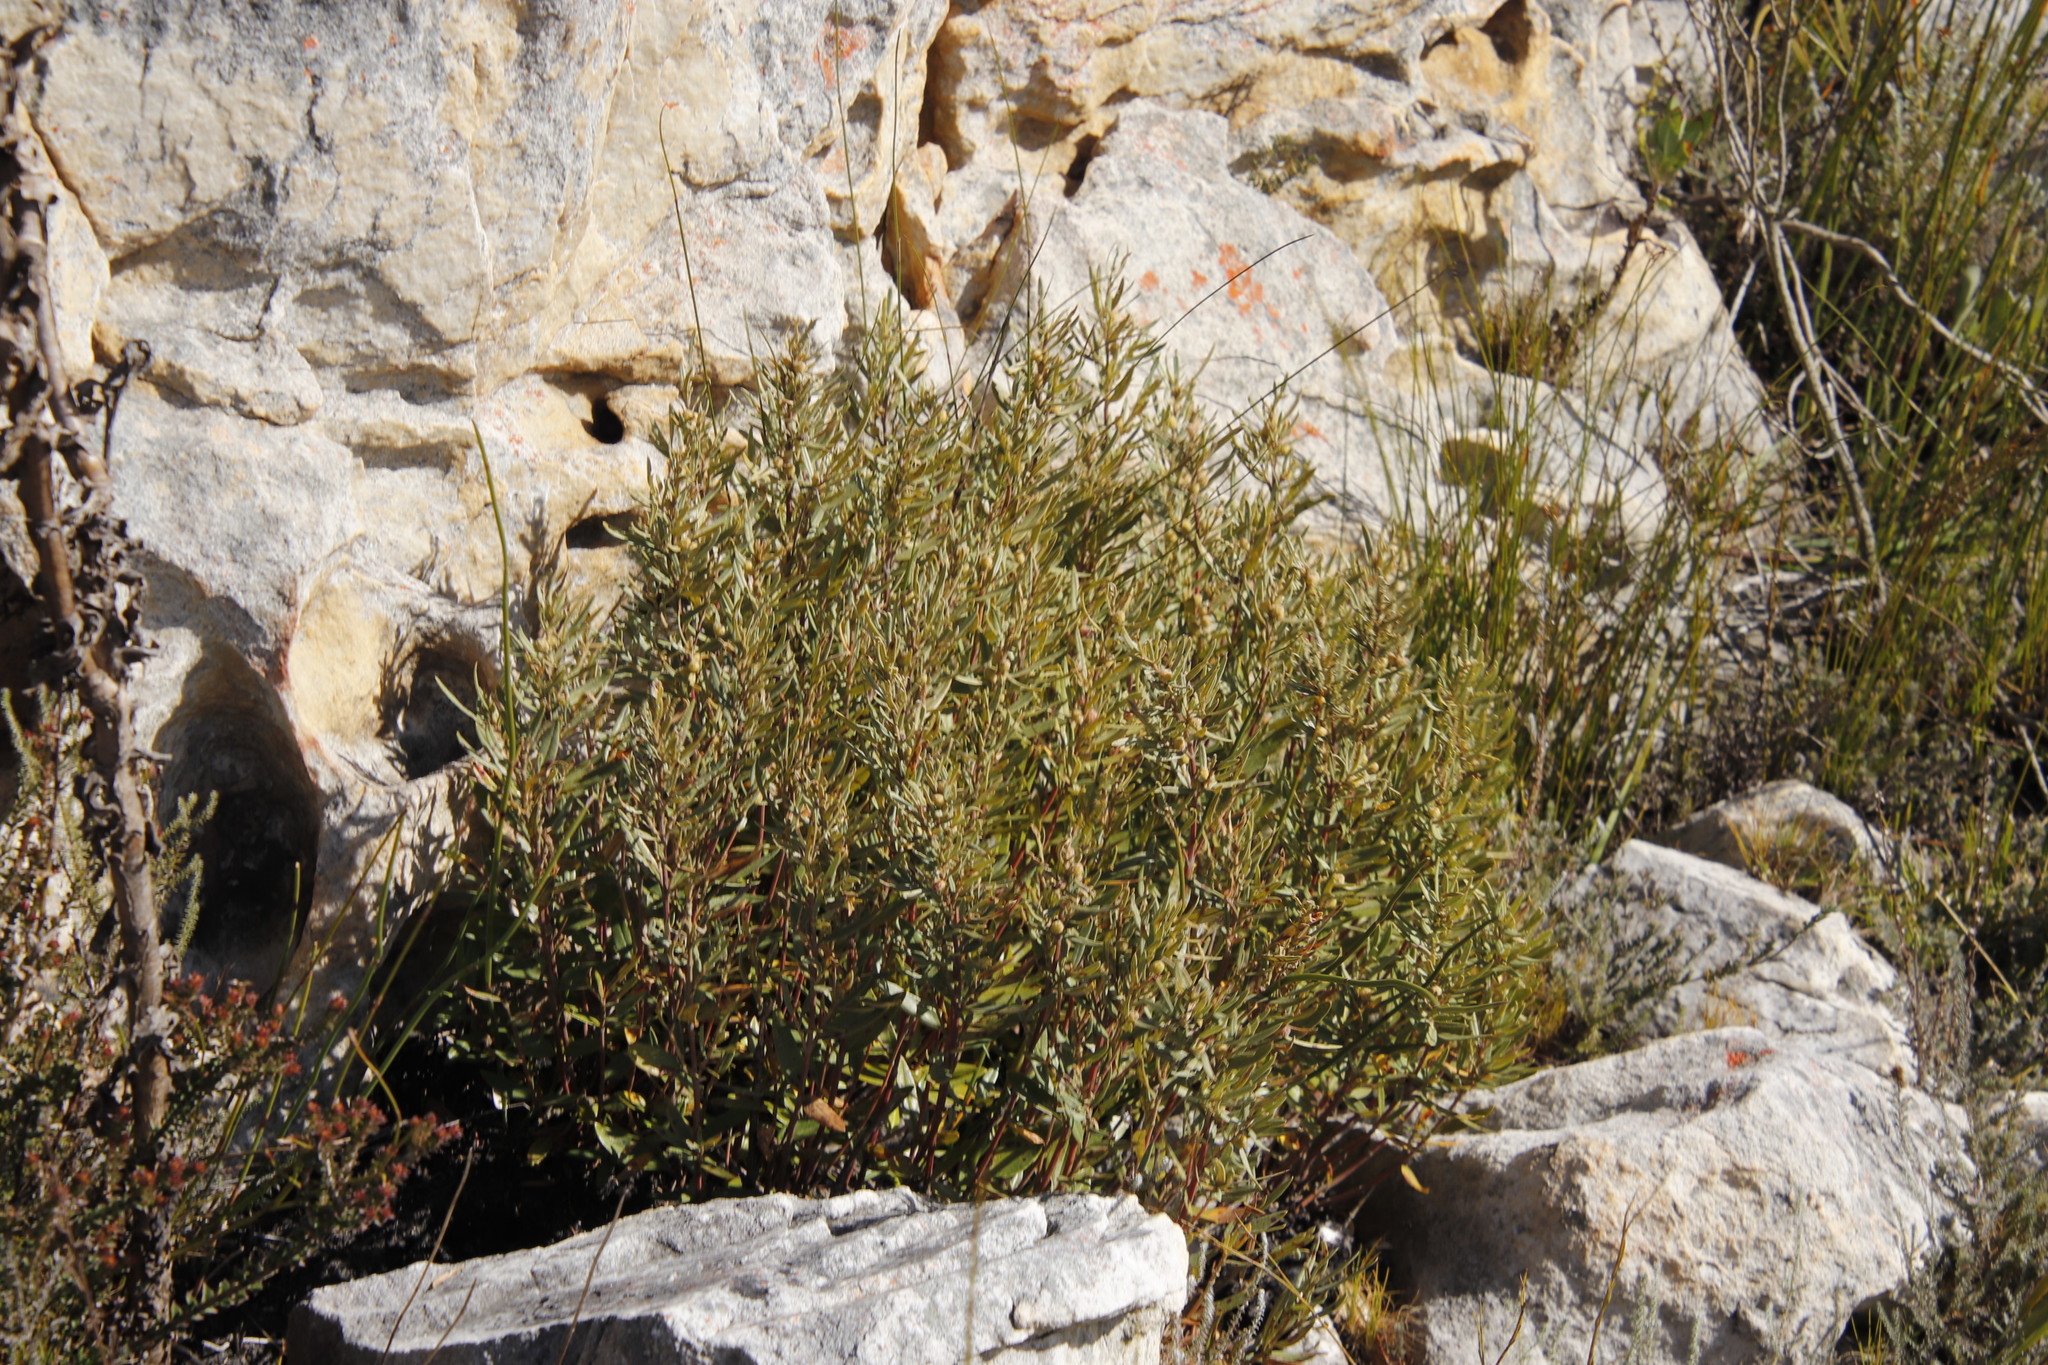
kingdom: Plantae
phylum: Tracheophyta
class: Magnoliopsida
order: Cornales
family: Grubbiaceae
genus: Grubbia
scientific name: Grubbia tomentosa
